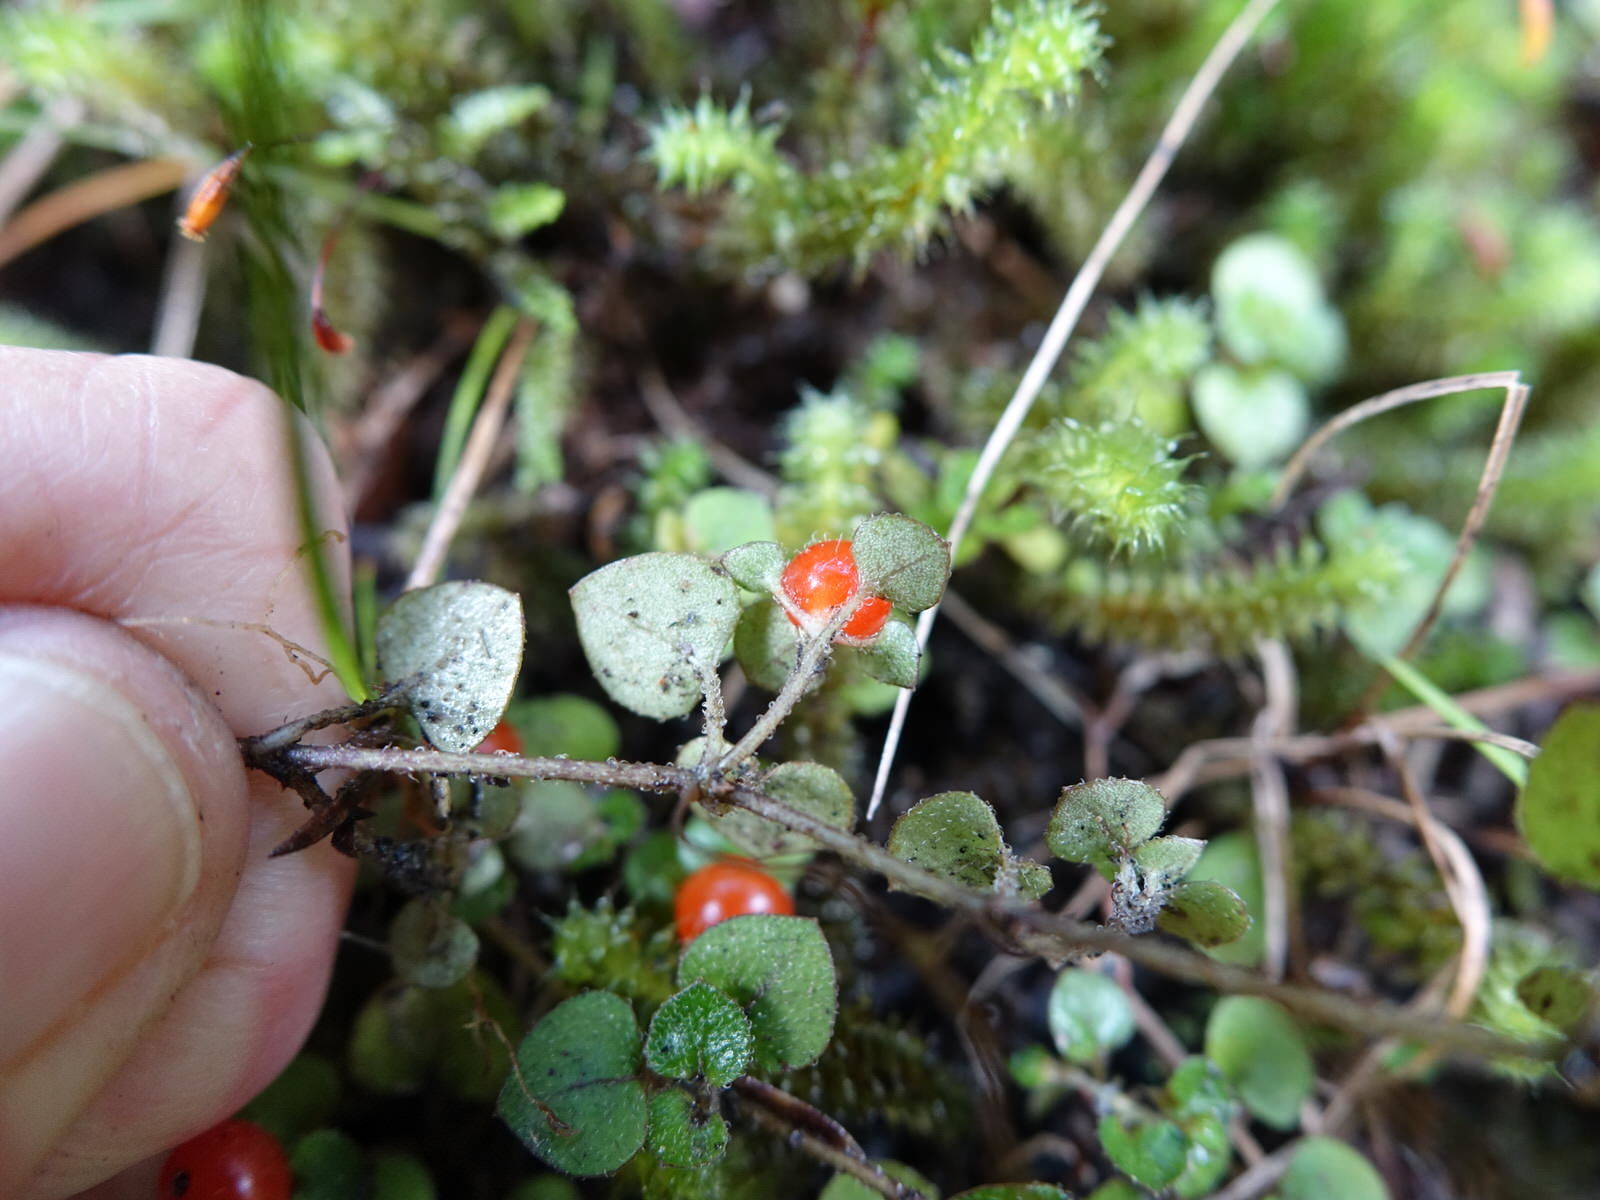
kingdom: Plantae
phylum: Tracheophyta
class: Magnoliopsida
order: Gentianales
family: Rubiaceae
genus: Nertera
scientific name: Nertera dichondrifolia
